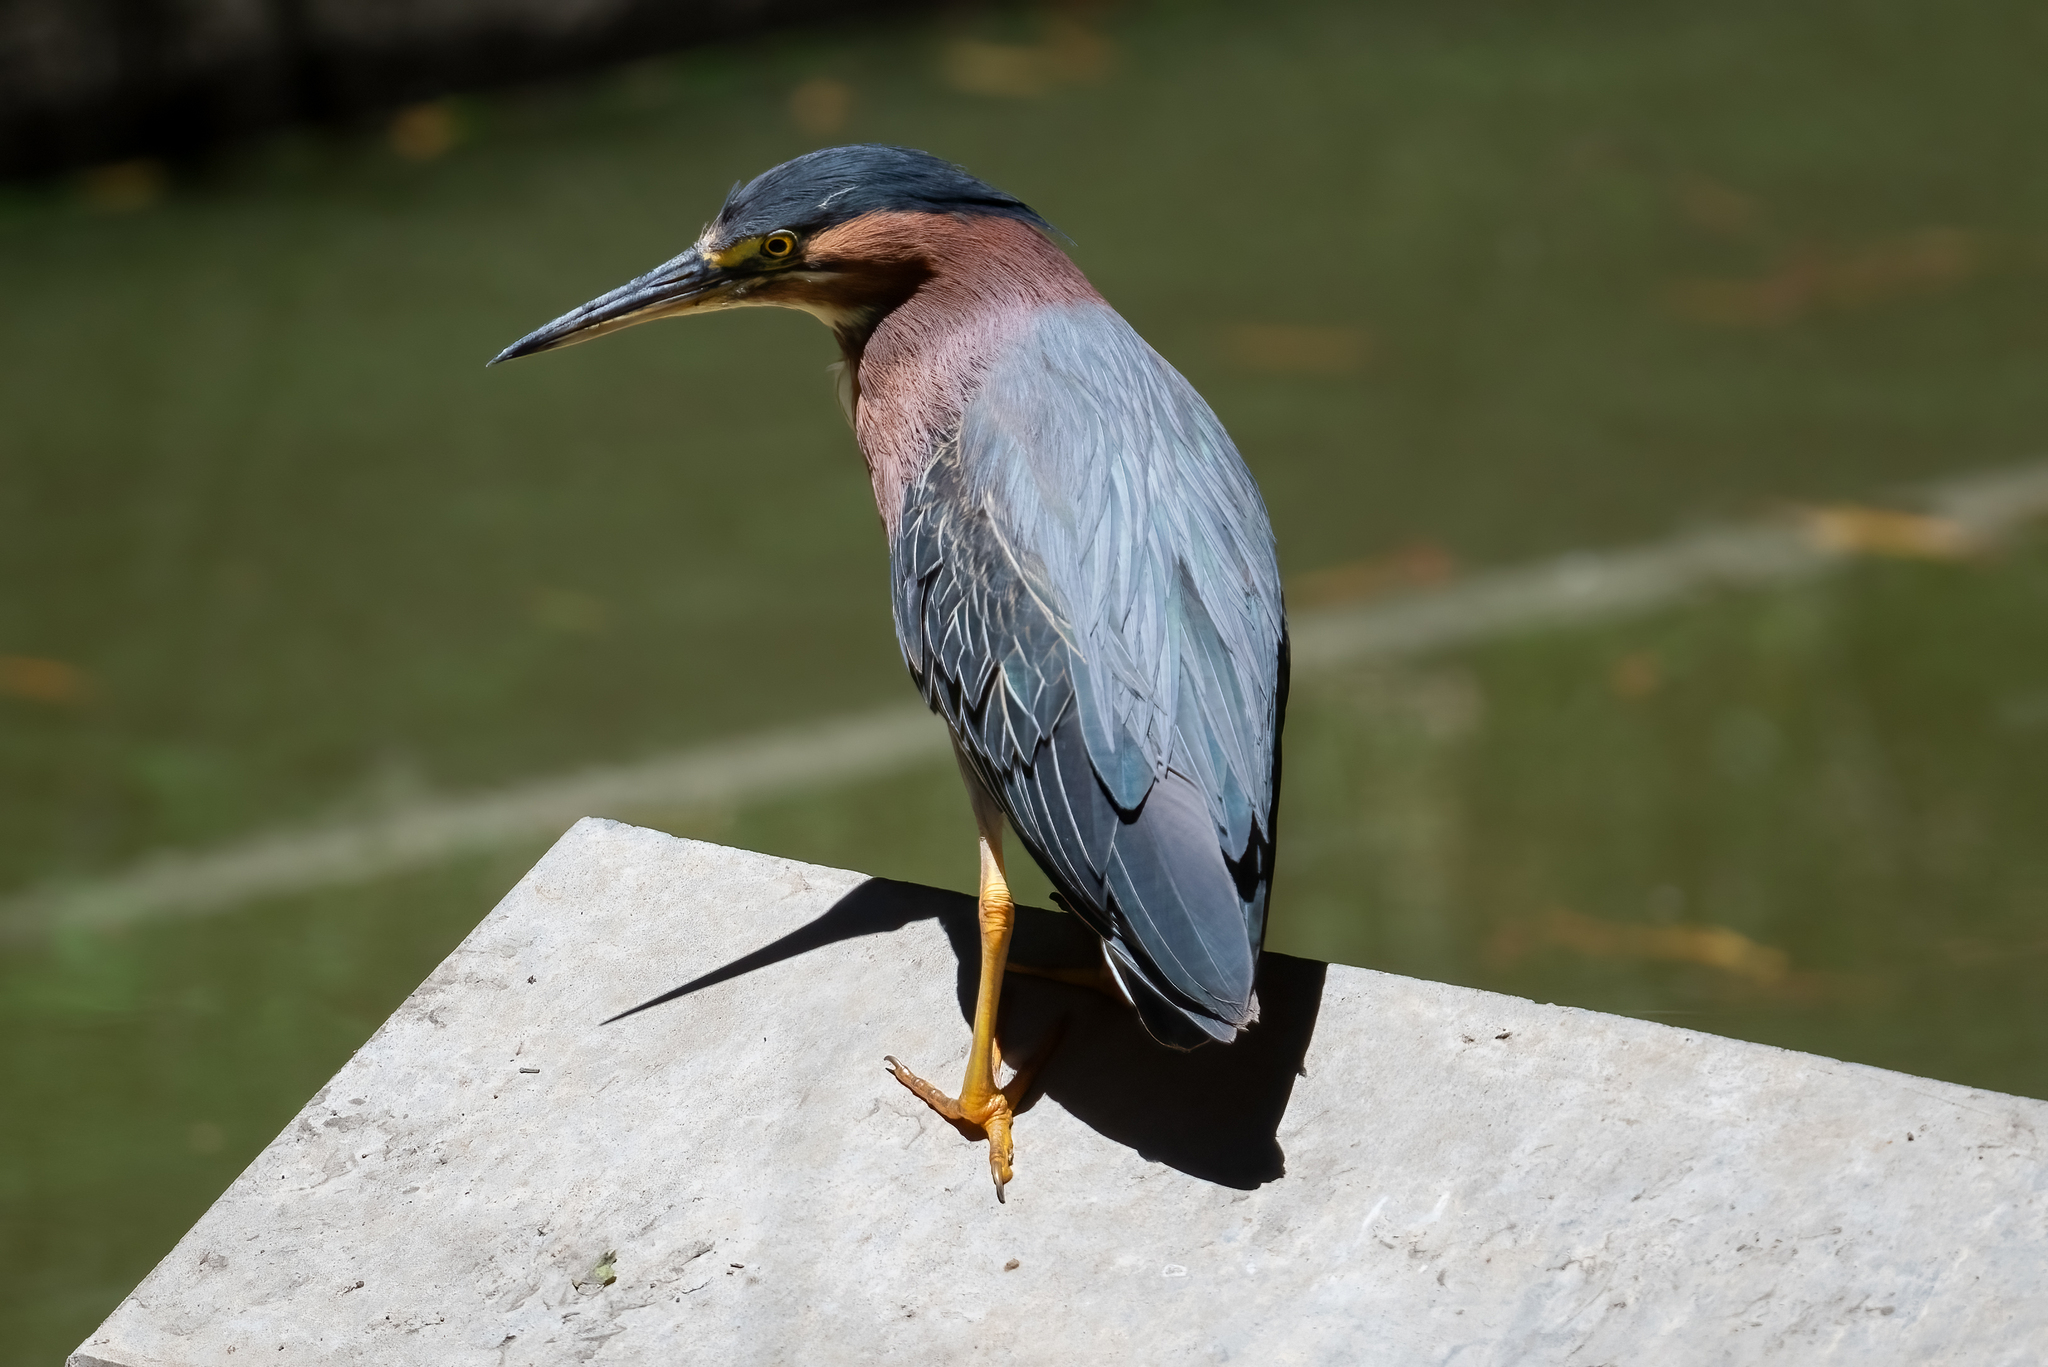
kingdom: Animalia
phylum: Chordata
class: Aves
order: Pelecaniformes
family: Ardeidae
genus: Butorides
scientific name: Butorides virescens
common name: Green heron
